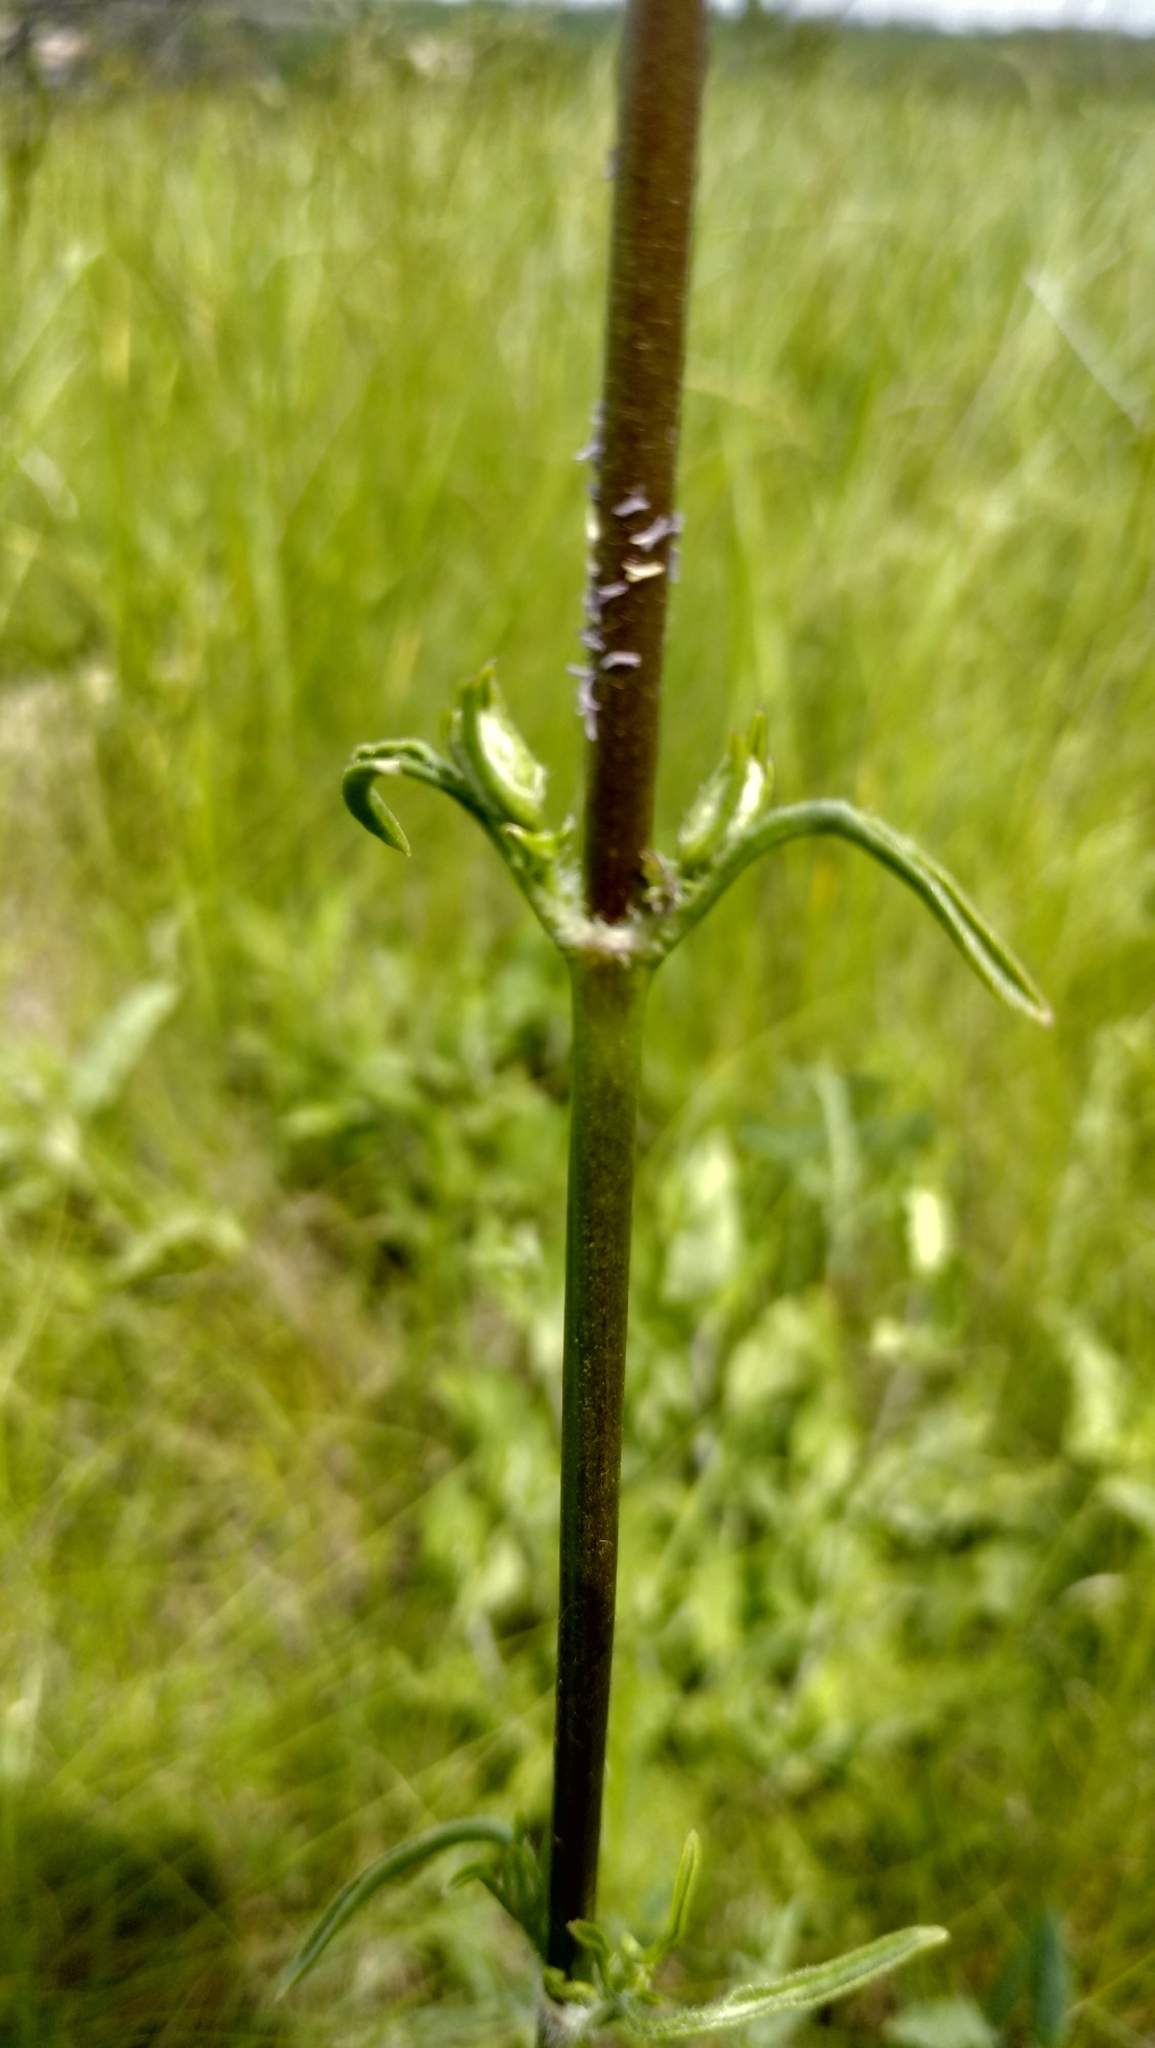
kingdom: Plantae
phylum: Tracheophyta
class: Magnoliopsida
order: Caryophyllales
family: Caryophyllaceae
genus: Silene
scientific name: Silene chersonensis
